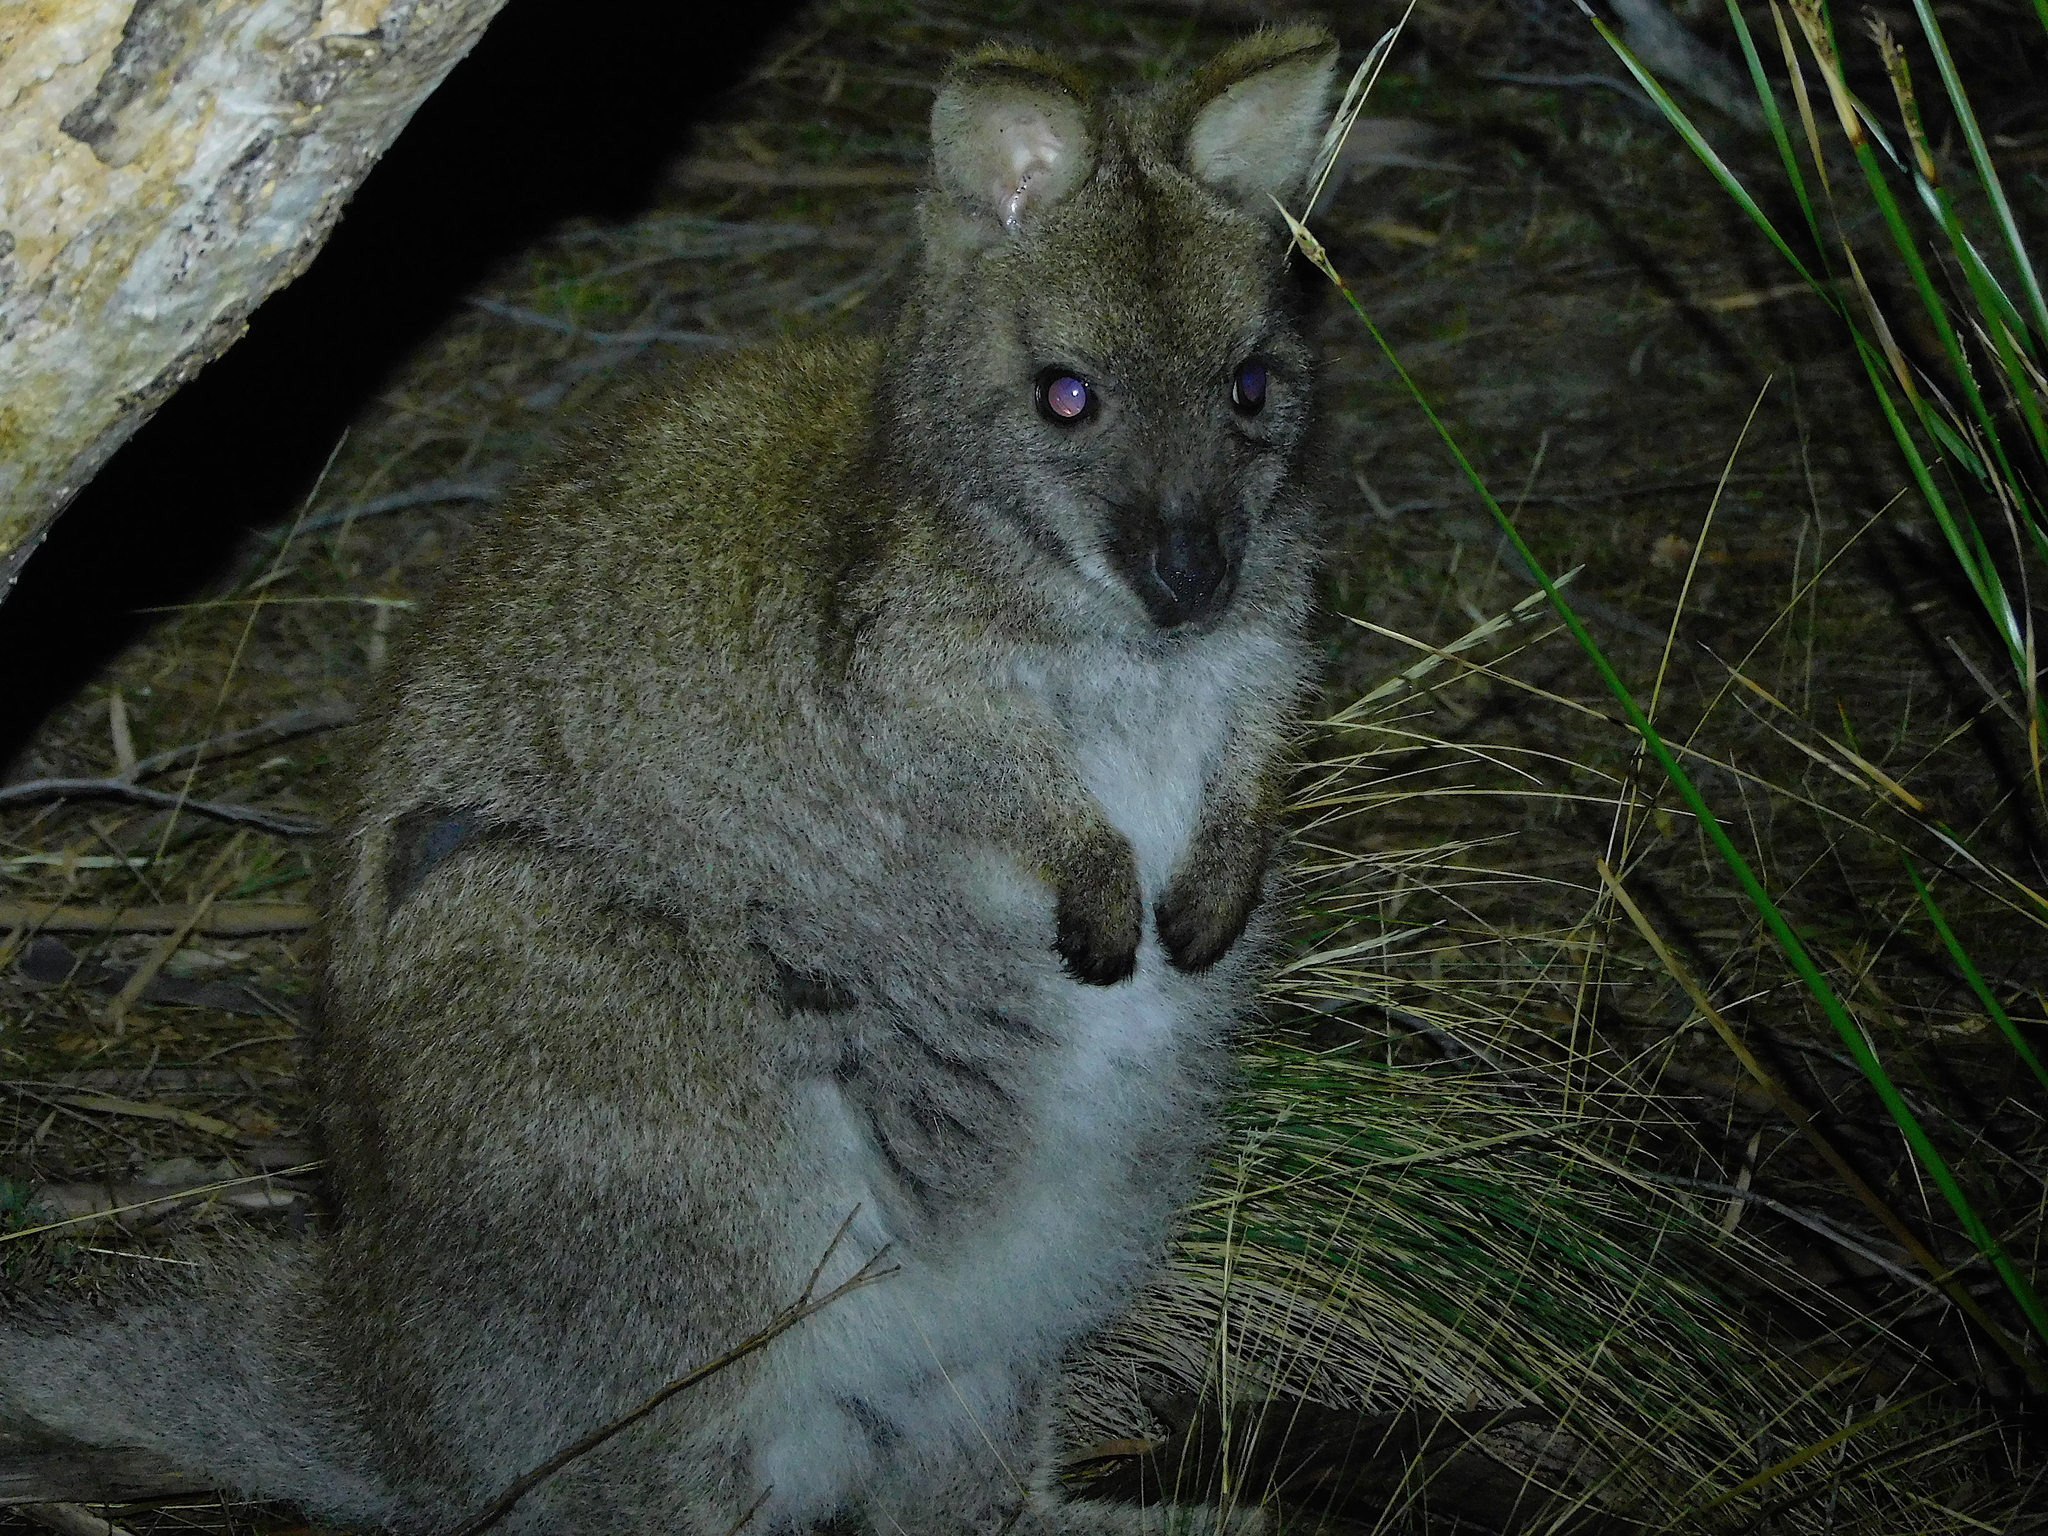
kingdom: Animalia
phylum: Chordata
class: Mammalia
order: Diprotodontia
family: Macropodidae
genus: Notamacropus
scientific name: Notamacropus rufogriseus
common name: Red-necked wallaby
